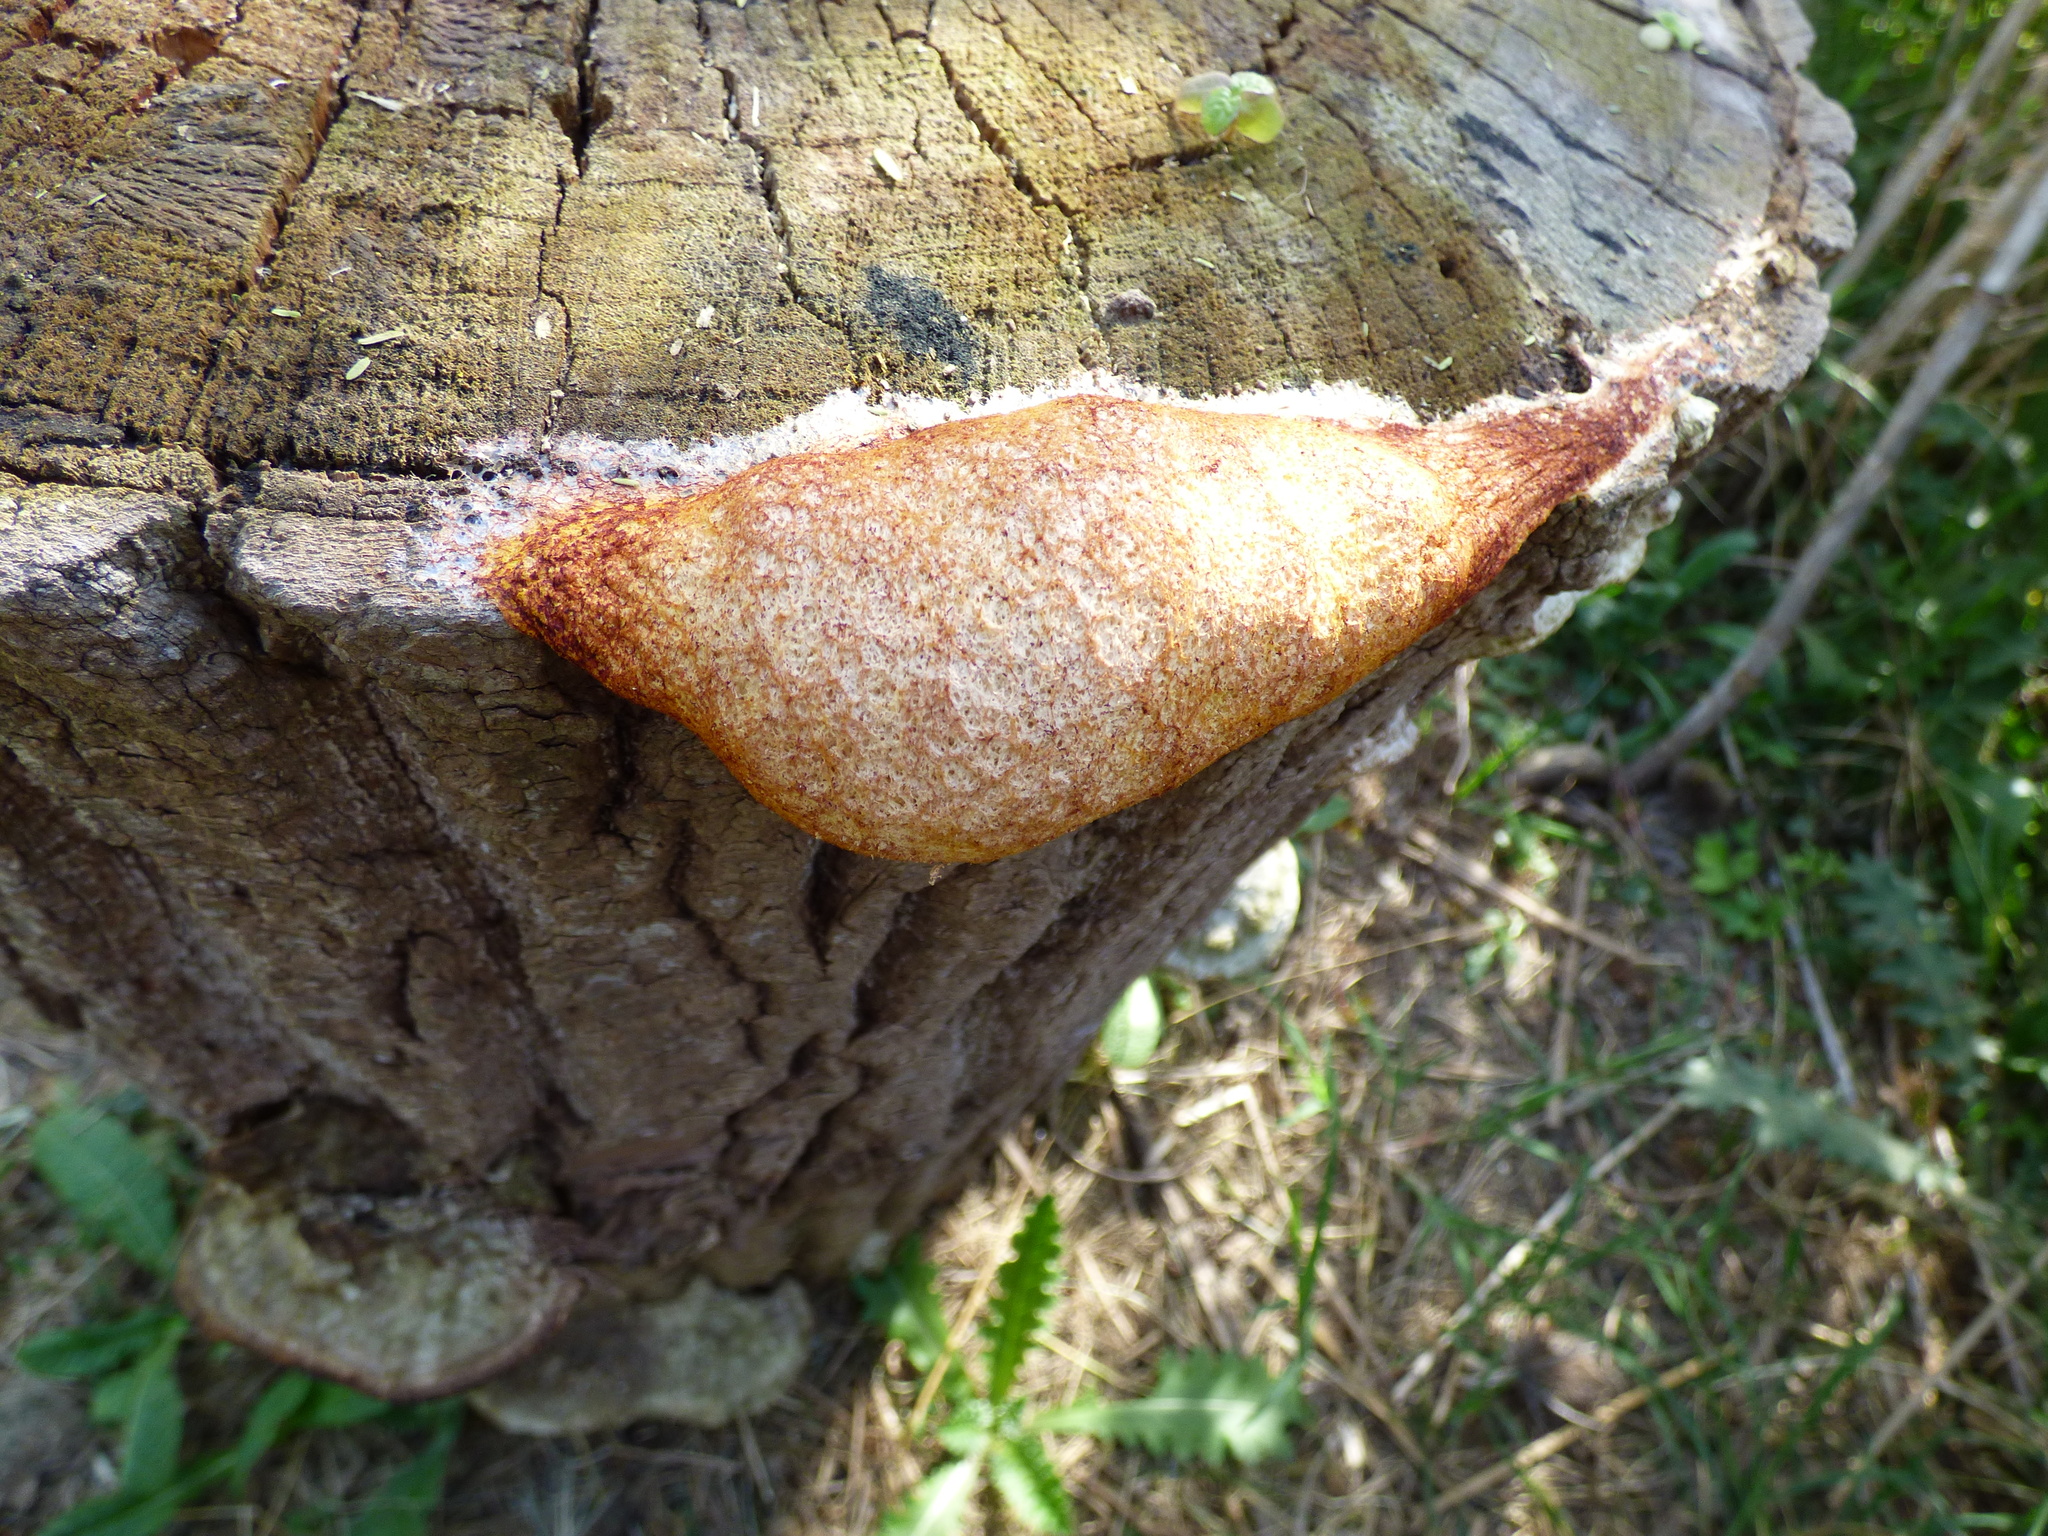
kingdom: Protozoa
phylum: Mycetozoa
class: Myxomycetes
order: Physarales
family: Physaraceae
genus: Fuligo
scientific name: Fuligo septica
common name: Dog vomit slime mold
